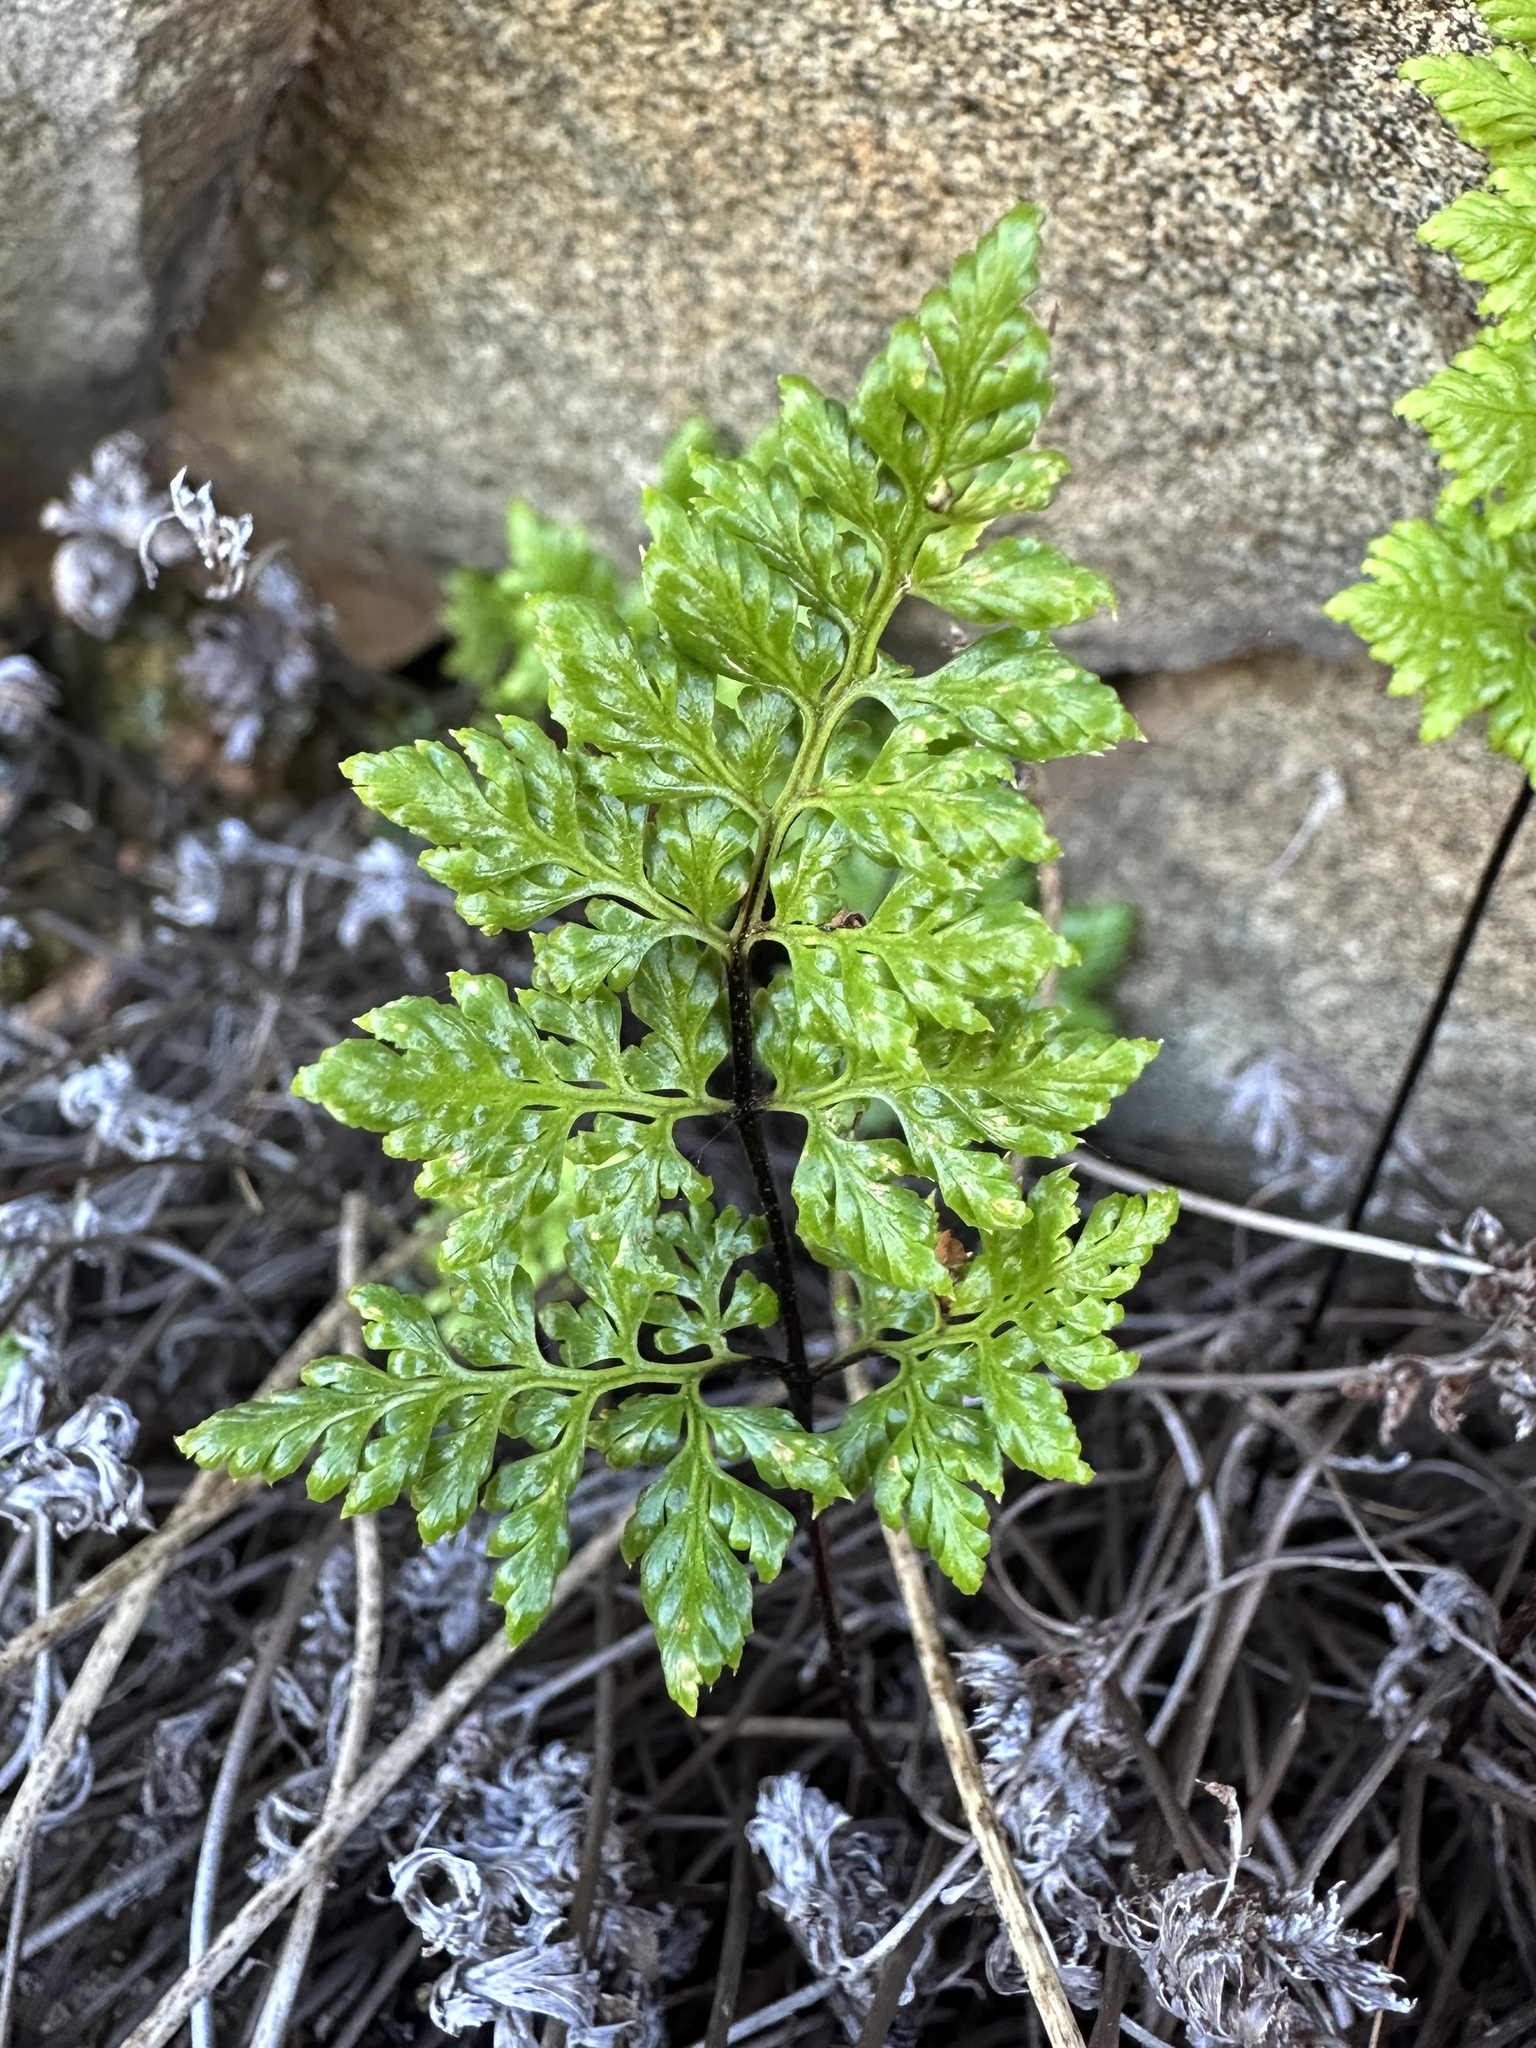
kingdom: Plantae
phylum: Tracheophyta
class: Polypodiopsida
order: Polypodiales
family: Pteridaceae
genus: Aspidotis
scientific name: Aspidotis californica
